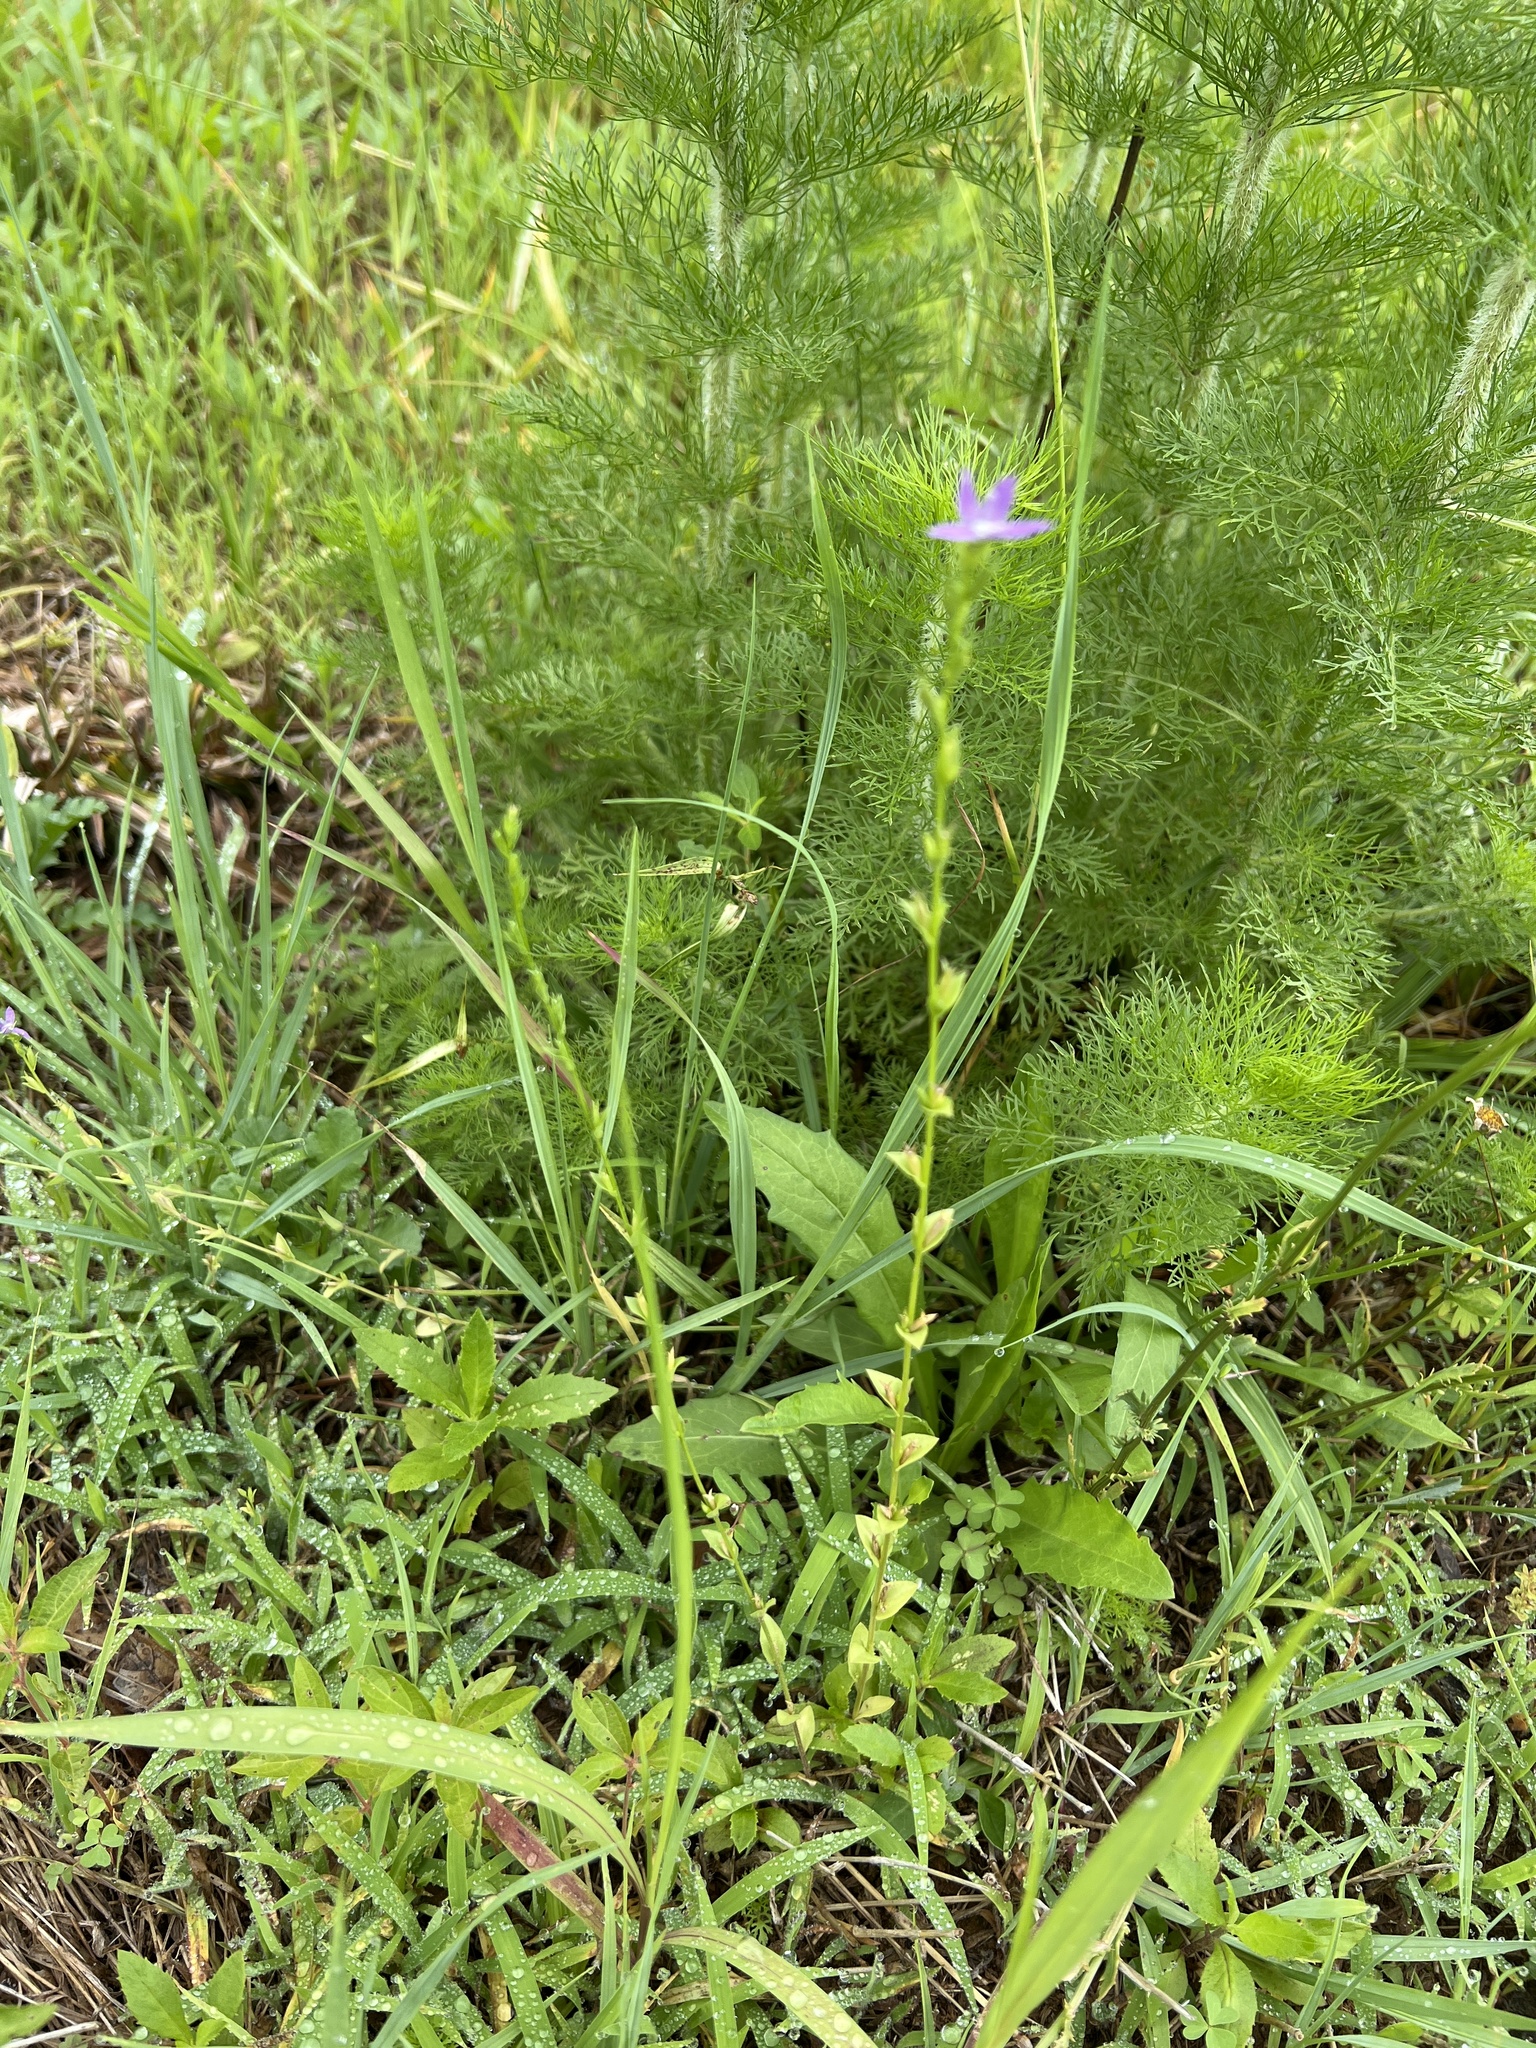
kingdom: Plantae
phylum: Tracheophyta
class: Magnoliopsida
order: Asterales
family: Campanulaceae
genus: Triodanis
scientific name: Triodanis biflora
